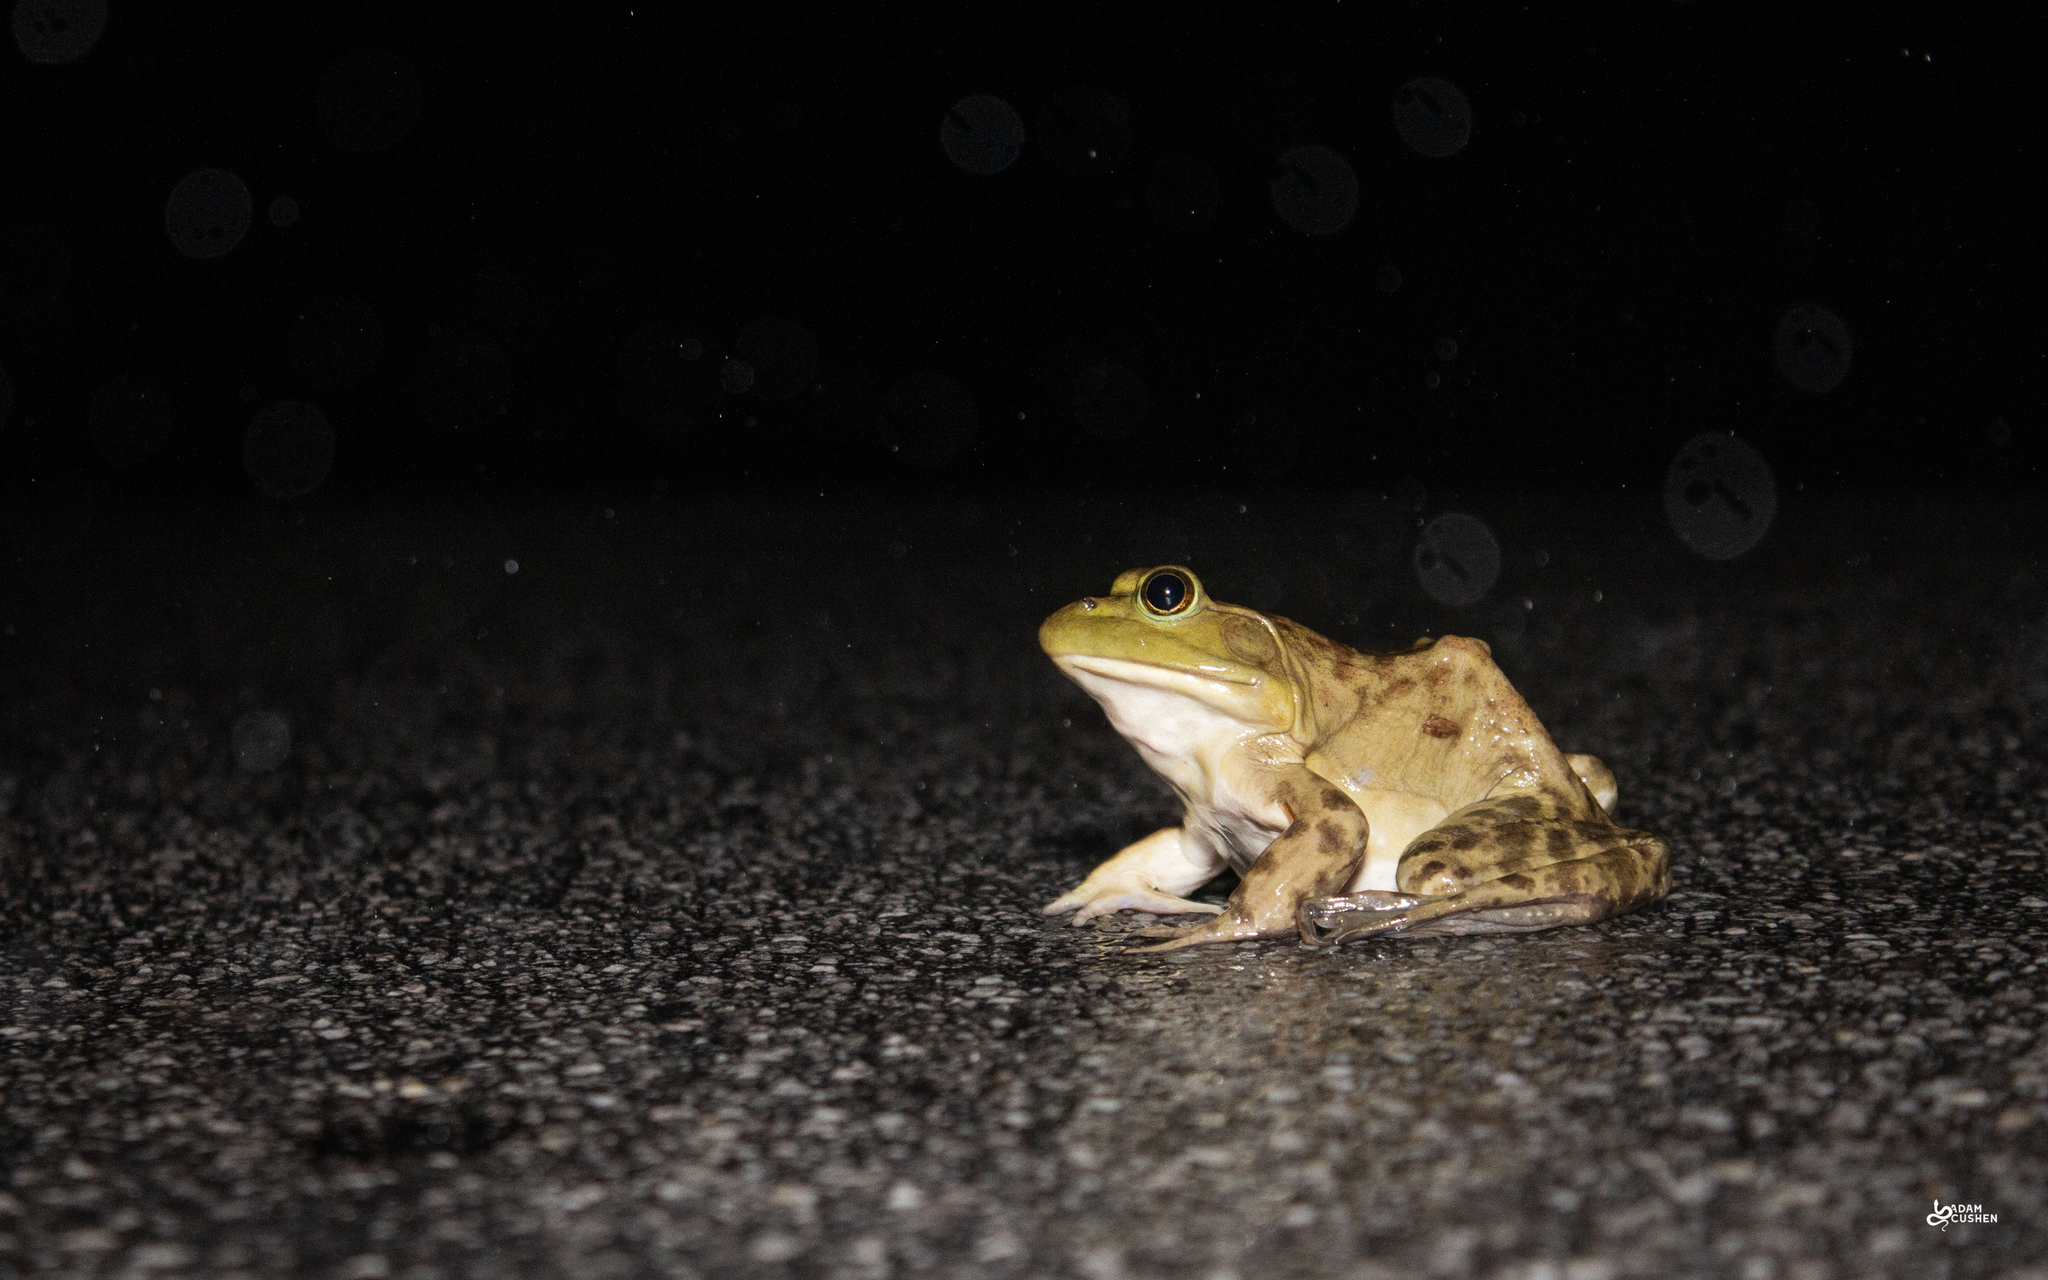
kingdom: Animalia
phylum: Chordata
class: Amphibia
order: Anura
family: Ranidae
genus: Lithobates
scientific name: Lithobates catesbeianus
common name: American bullfrog
